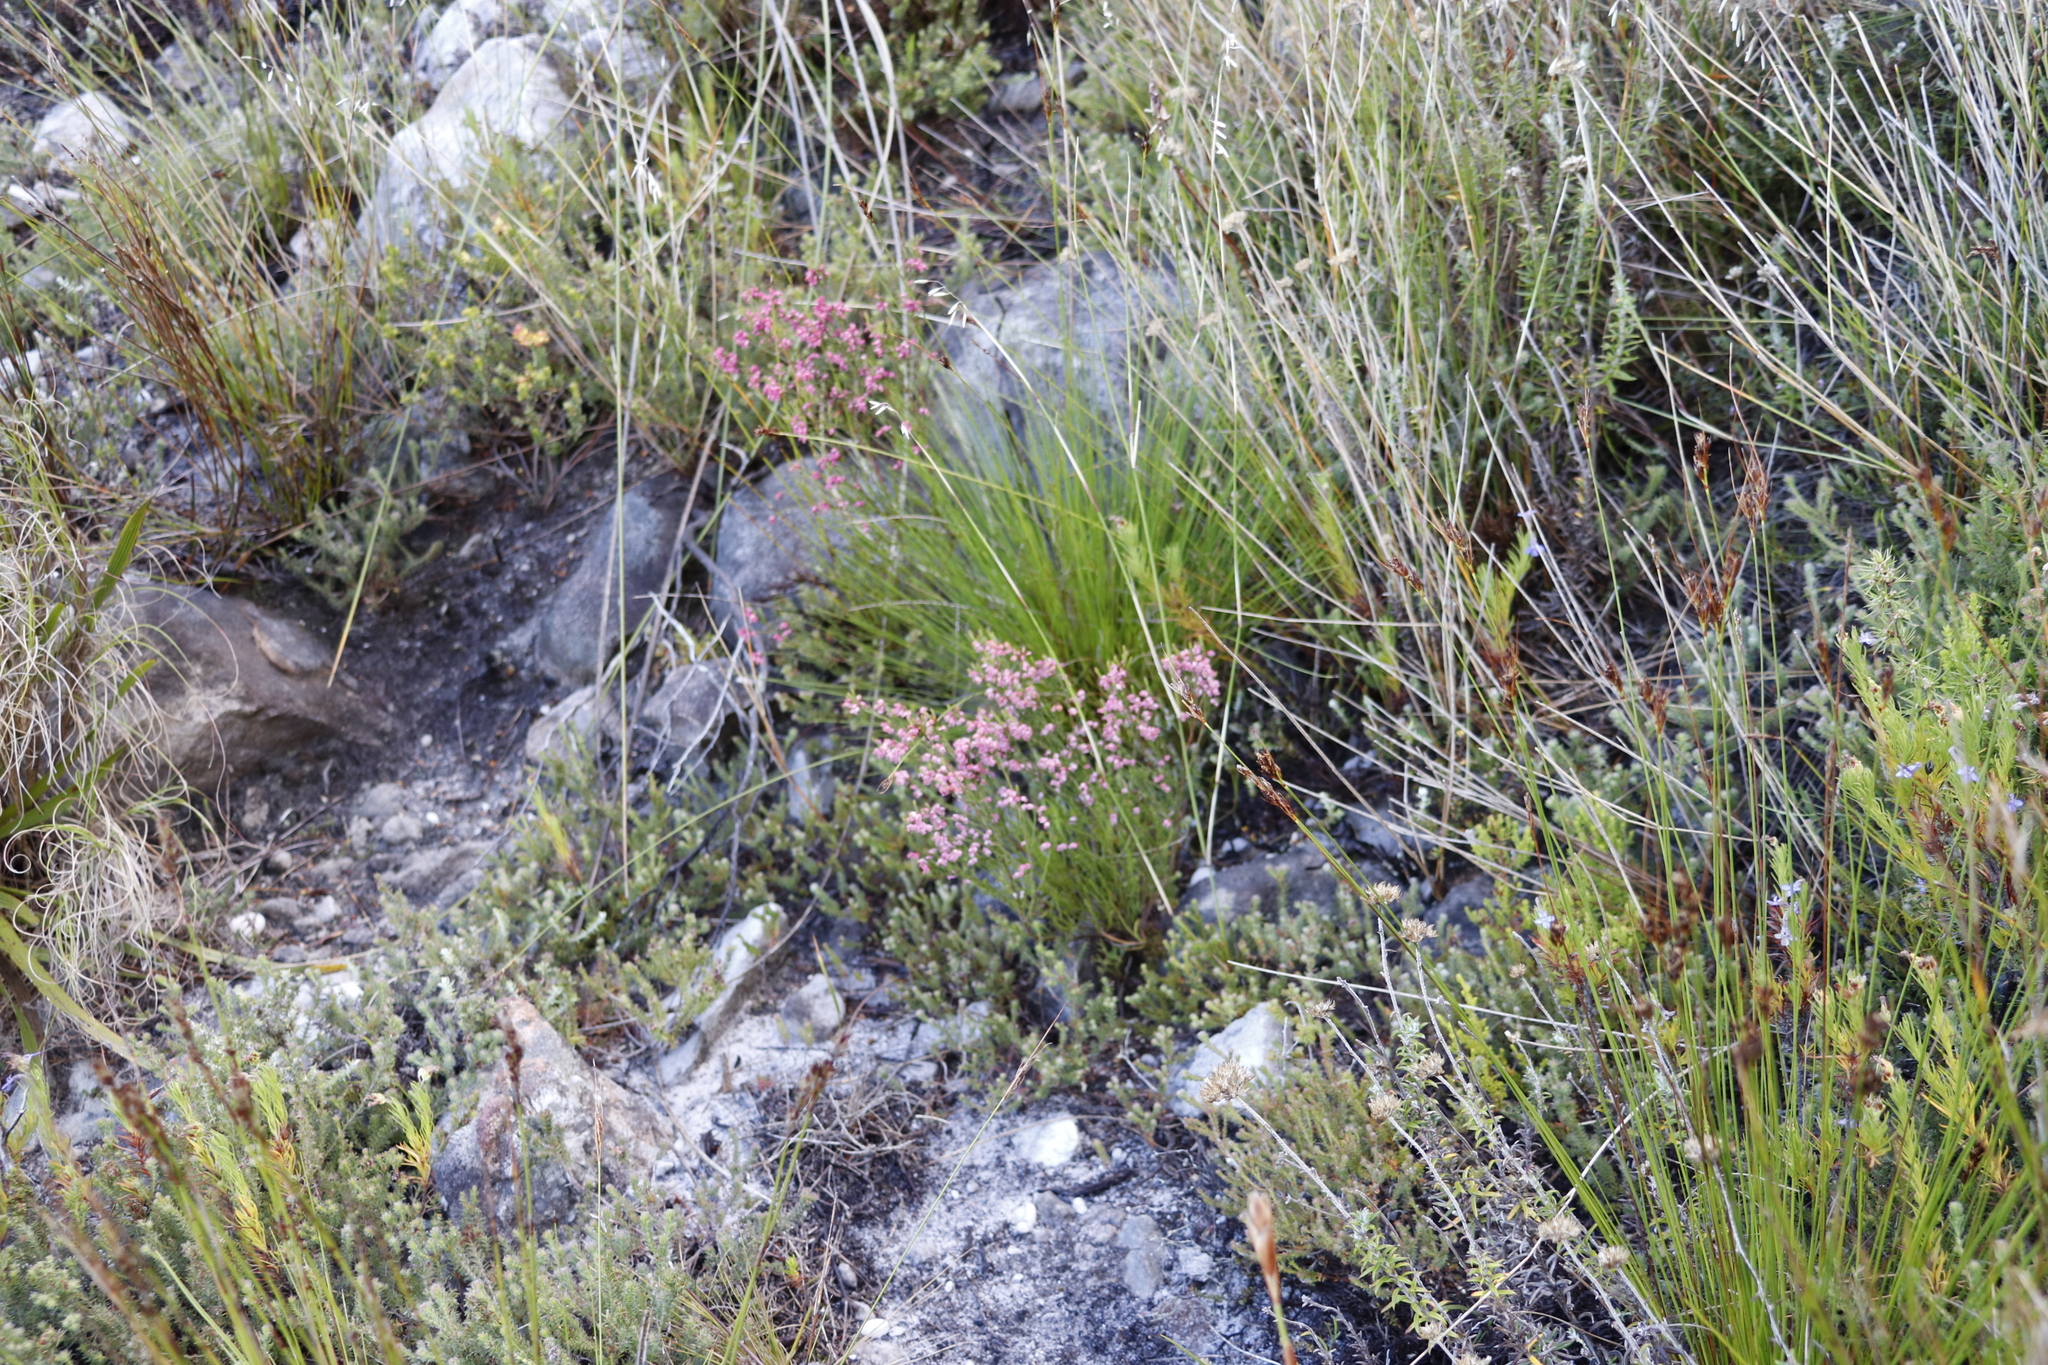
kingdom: Plantae
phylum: Tracheophyta
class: Magnoliopsida
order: Ericales
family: Ericaceae
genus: Erica
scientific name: Erica tenuifolia
